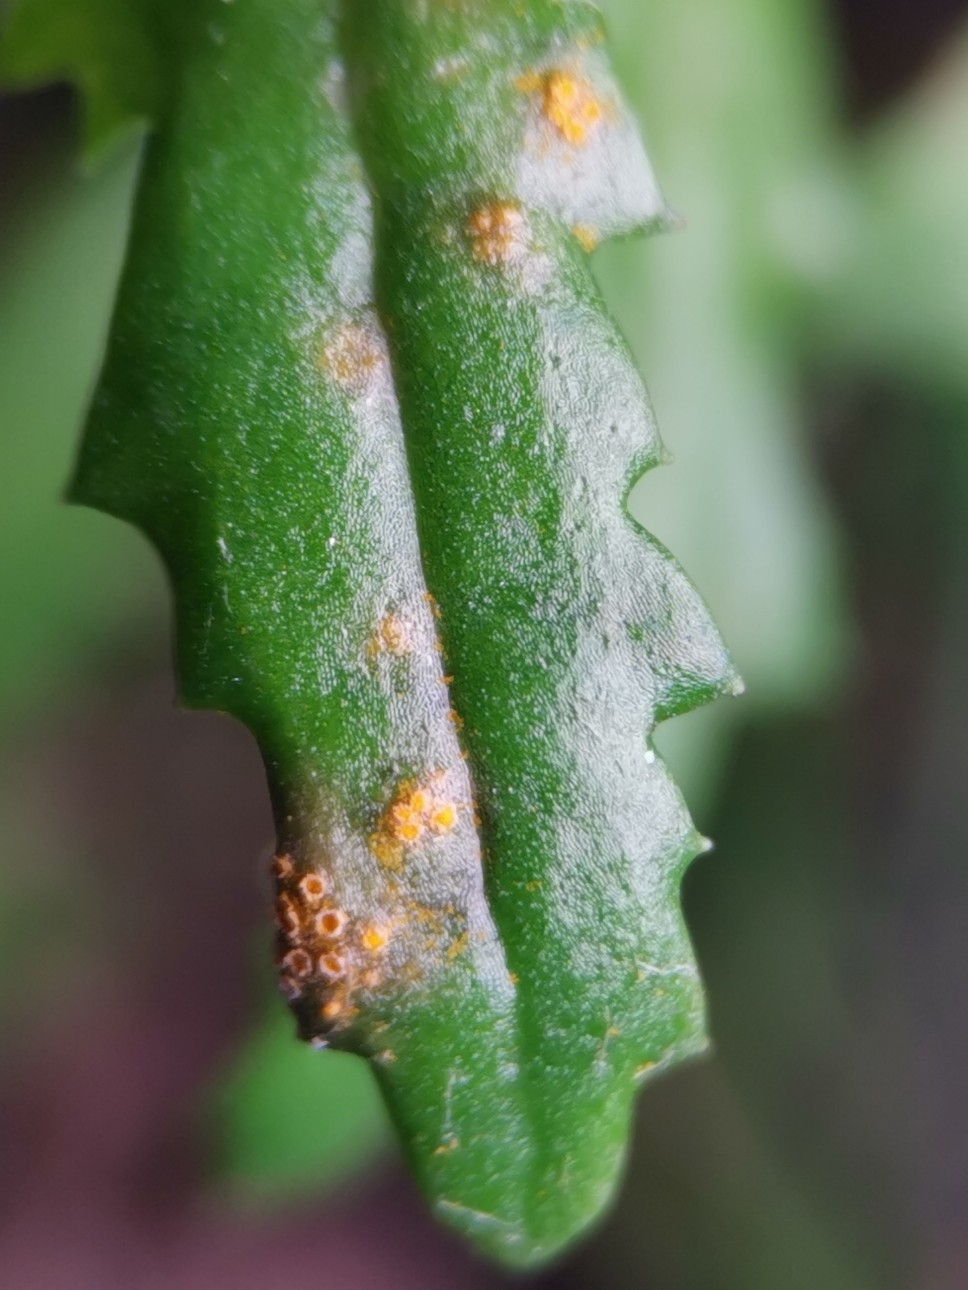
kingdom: Fungi
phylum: Basidiomycota
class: Pucciniomycetes
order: Pucciniales
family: Pucciniaceae
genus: Puccinia
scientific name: Puccinia lagenophorae
